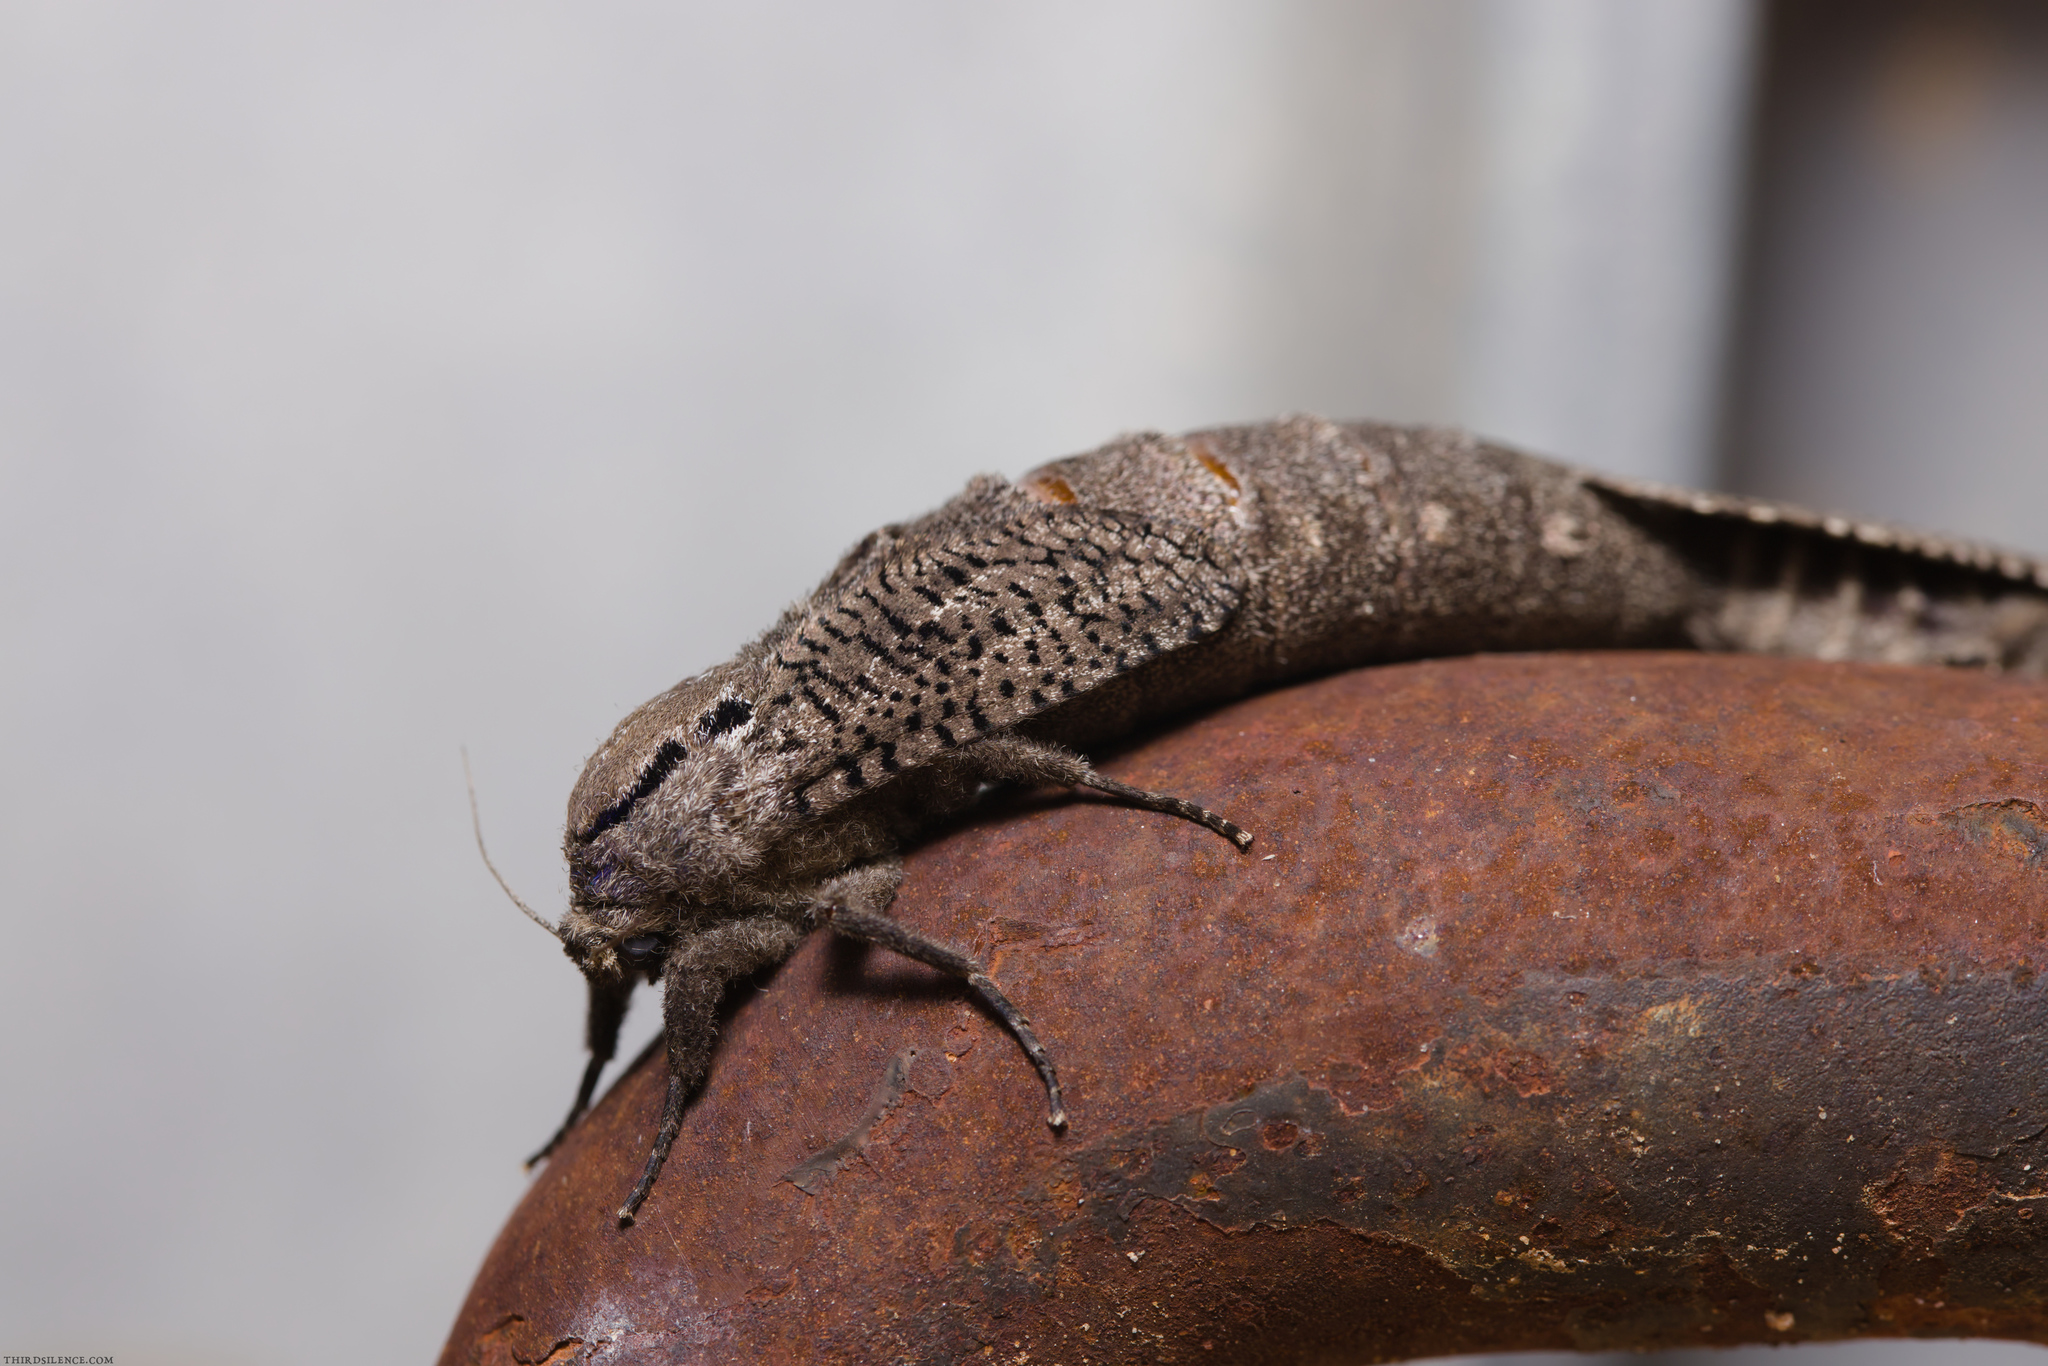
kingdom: Animalia
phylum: Arthropoda
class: Insecta
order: Lepidoptera
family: Cossidae
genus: Endoxyla
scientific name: Endoxyla amphiplecta
